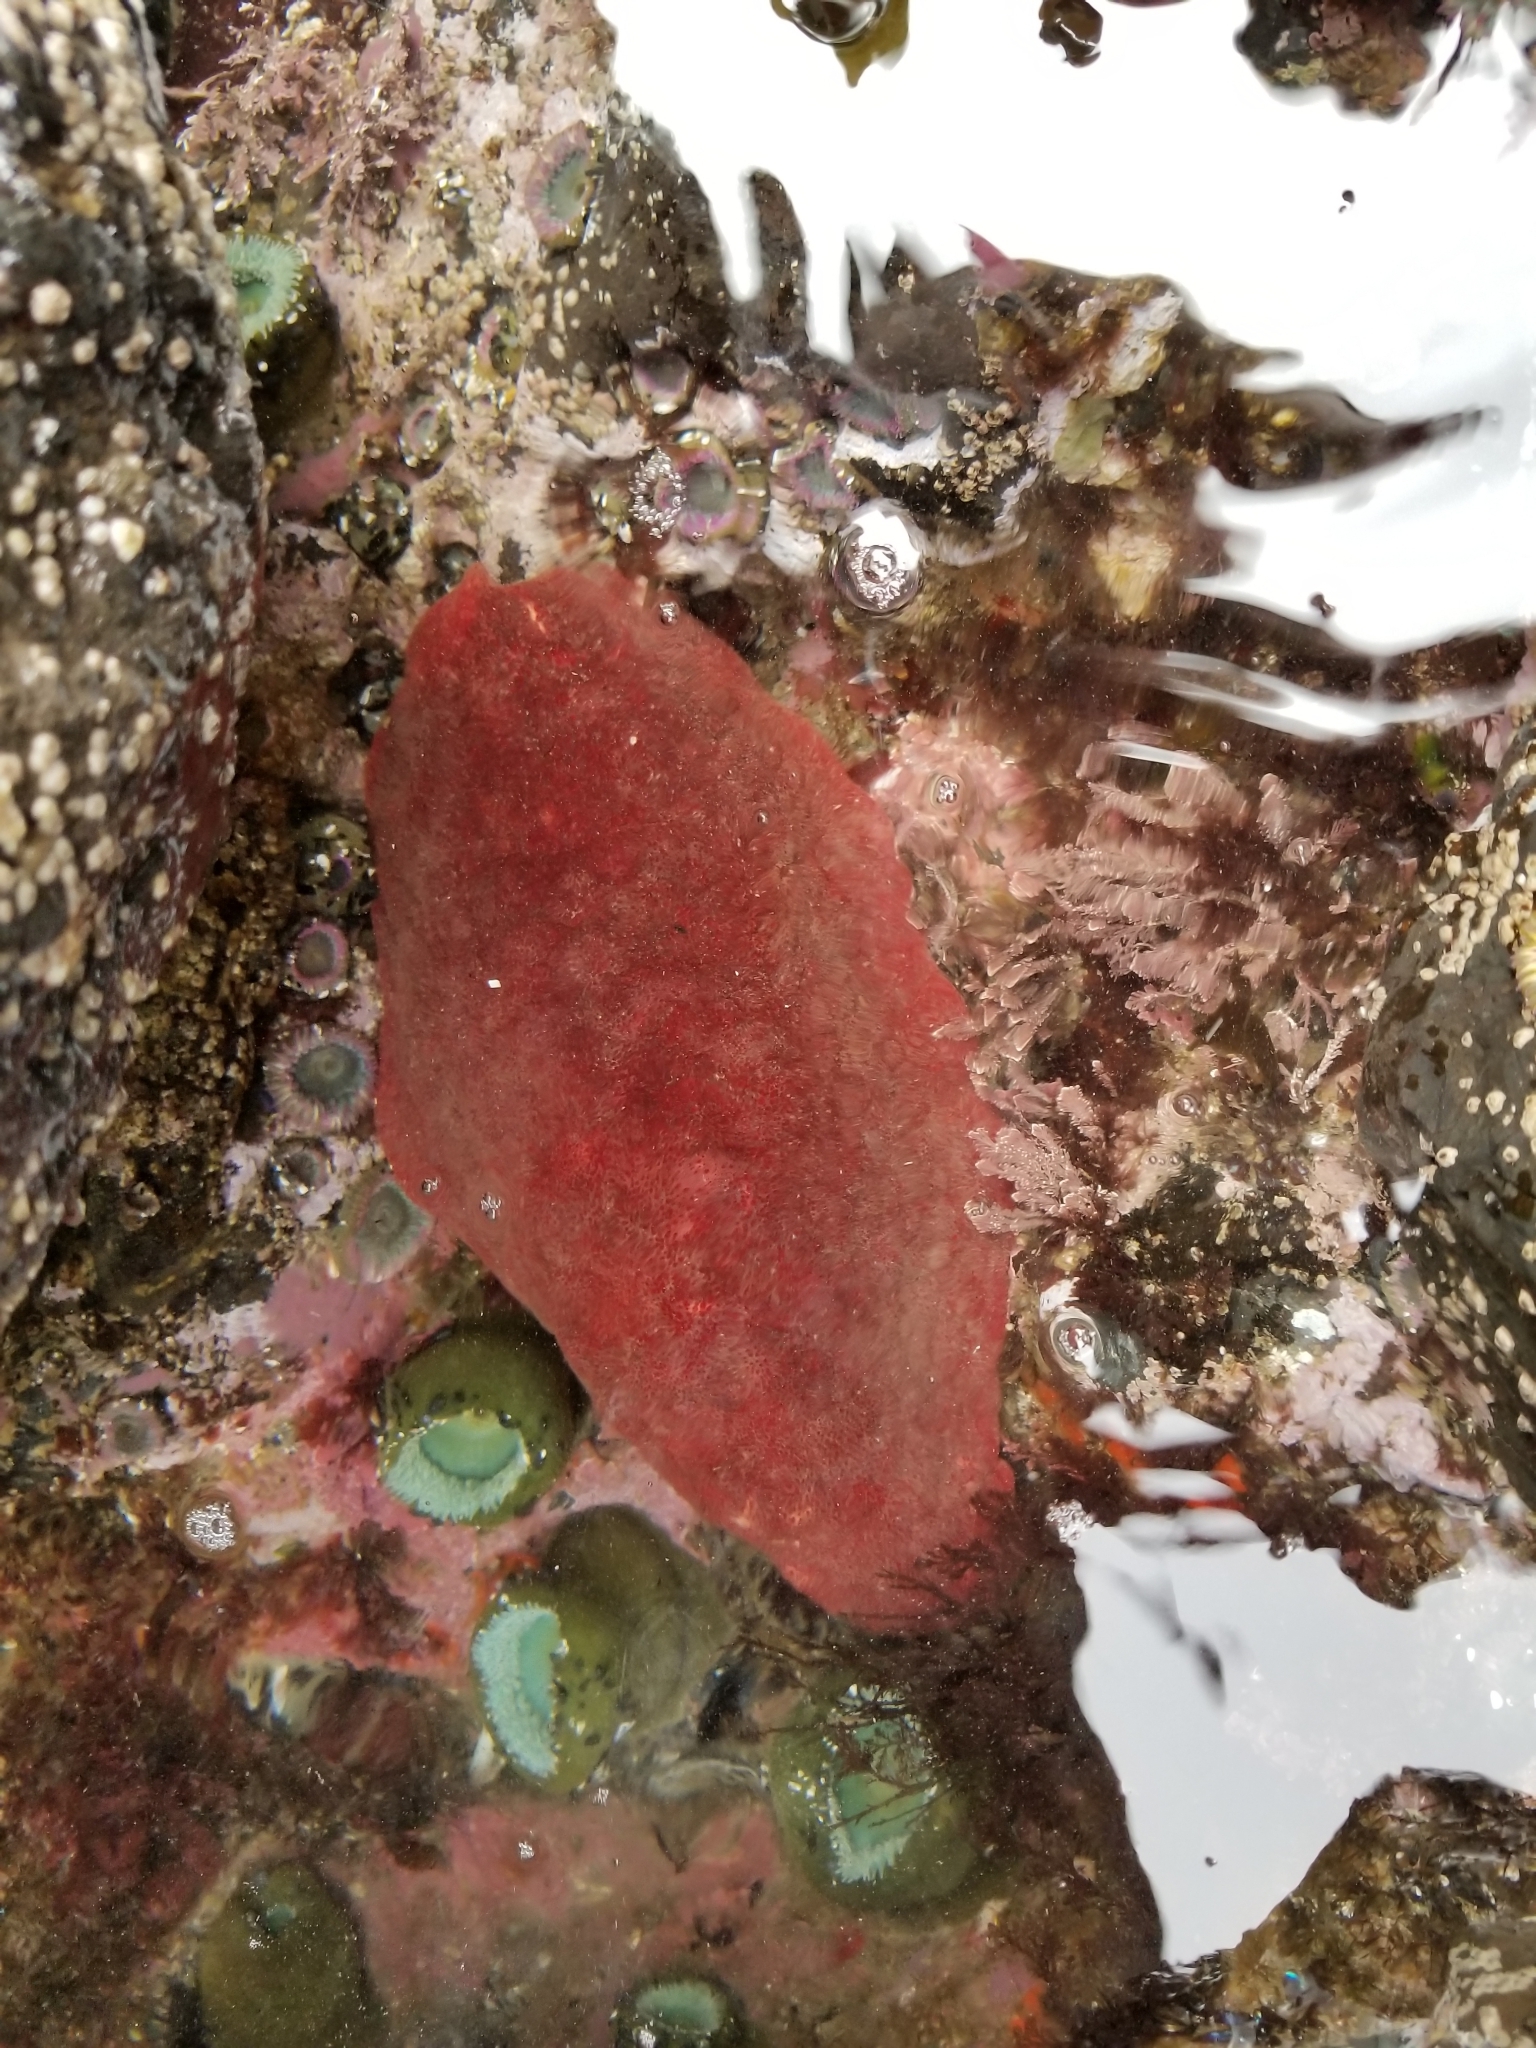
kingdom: Animalia
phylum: Mollusca
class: Polyplacophora
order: Chitonida
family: Acanthochitonidae
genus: Cryptochiton
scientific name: Cryptochiton stelleri
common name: Giant pacific chiton
